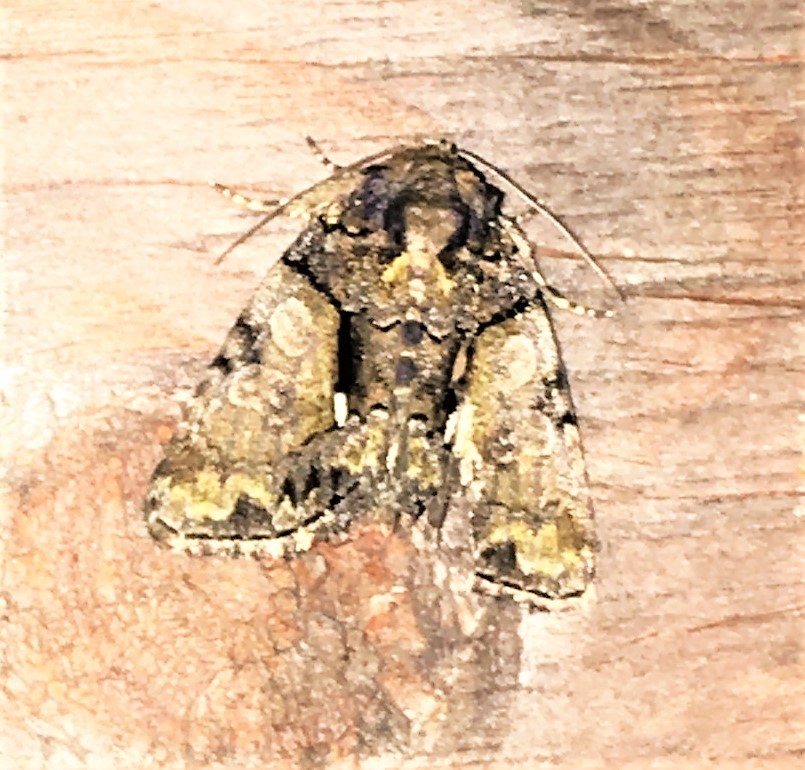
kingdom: Animalia
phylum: Arthropoda
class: Insecta
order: Lepidoptera
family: Noctuidae
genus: Chytonix
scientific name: Chytonix palliatricula
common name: Cloaked marvel
